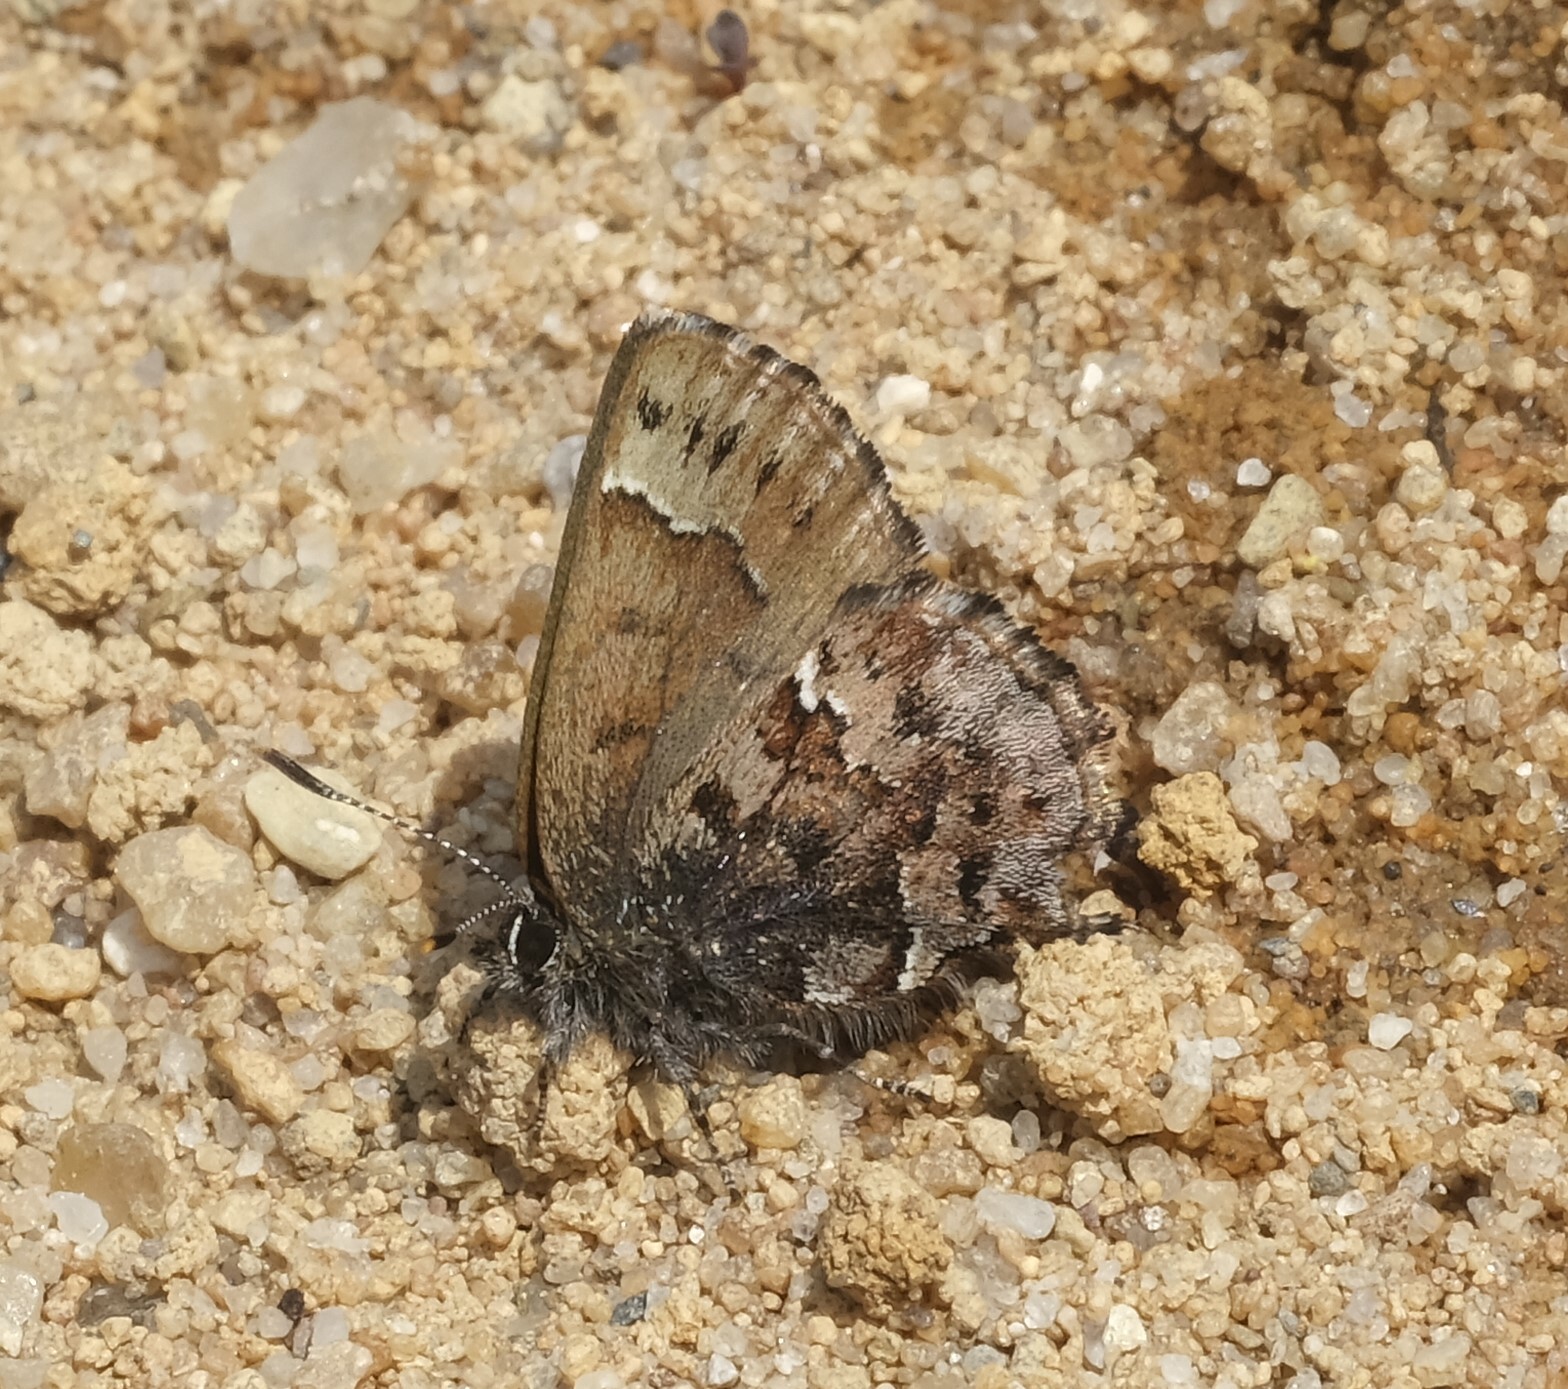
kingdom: Animalia
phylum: Arthropoda
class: Insecta
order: Lepidoptera
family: Lycaenidae
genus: Incisalia
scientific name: Incisalia lanoraieensis
